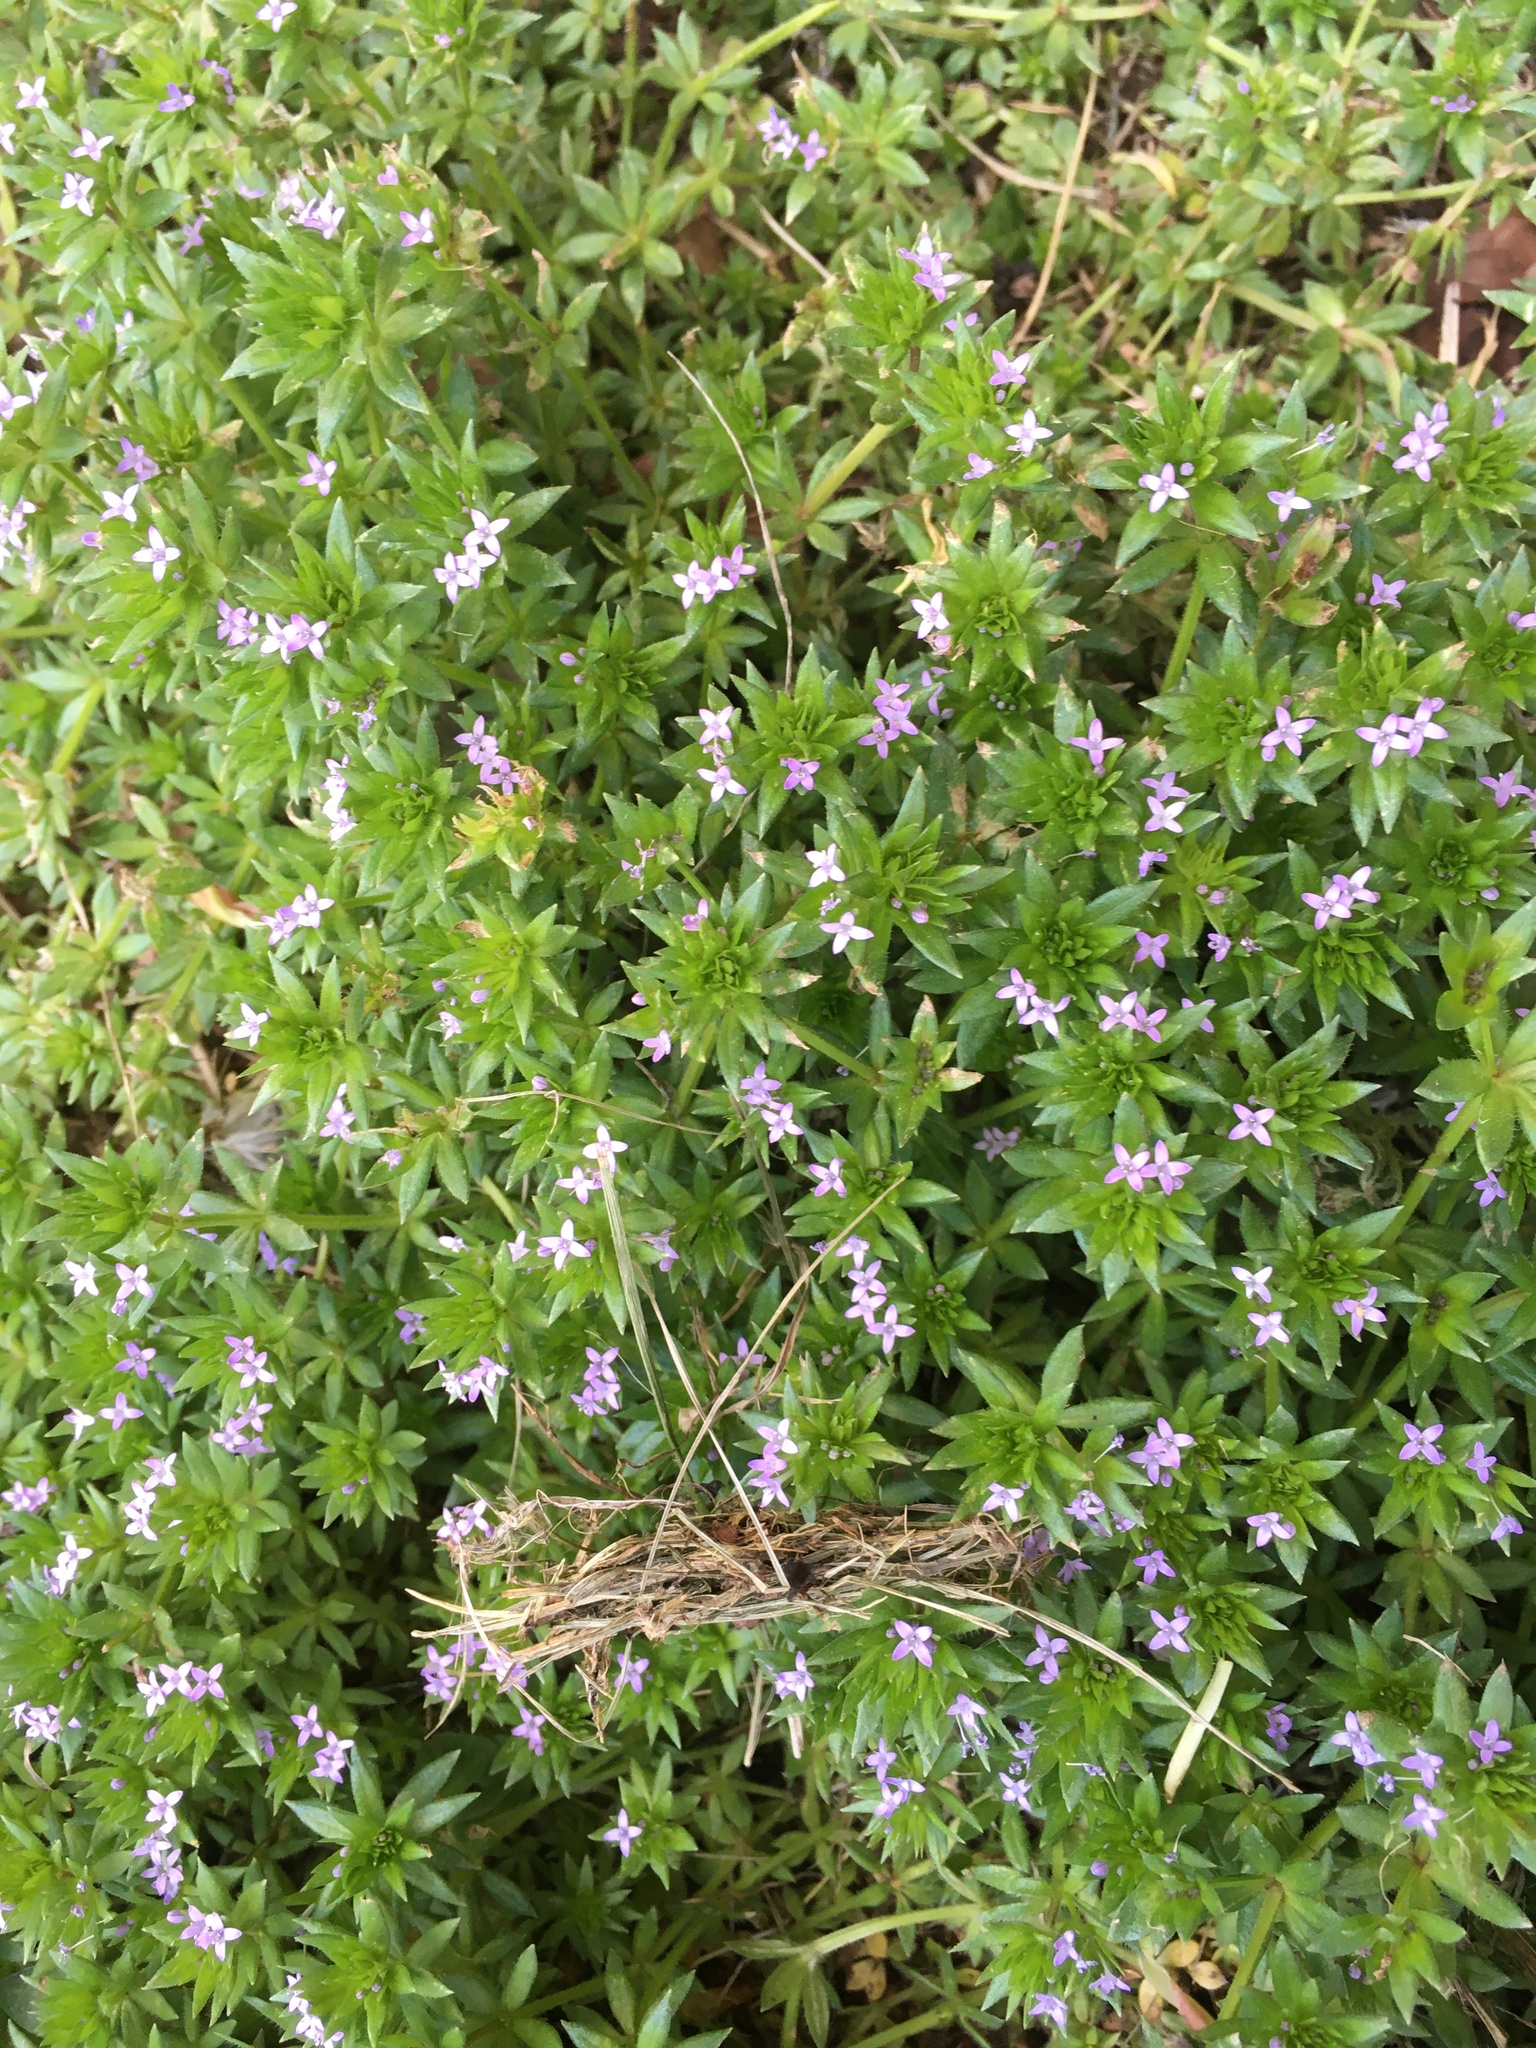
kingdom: Plantae
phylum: Tracheophyta
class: Magnoliopsida
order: Gentianales
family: Rubiaceae
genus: Sherardia
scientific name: Sherardia arvensis
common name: Field madder
